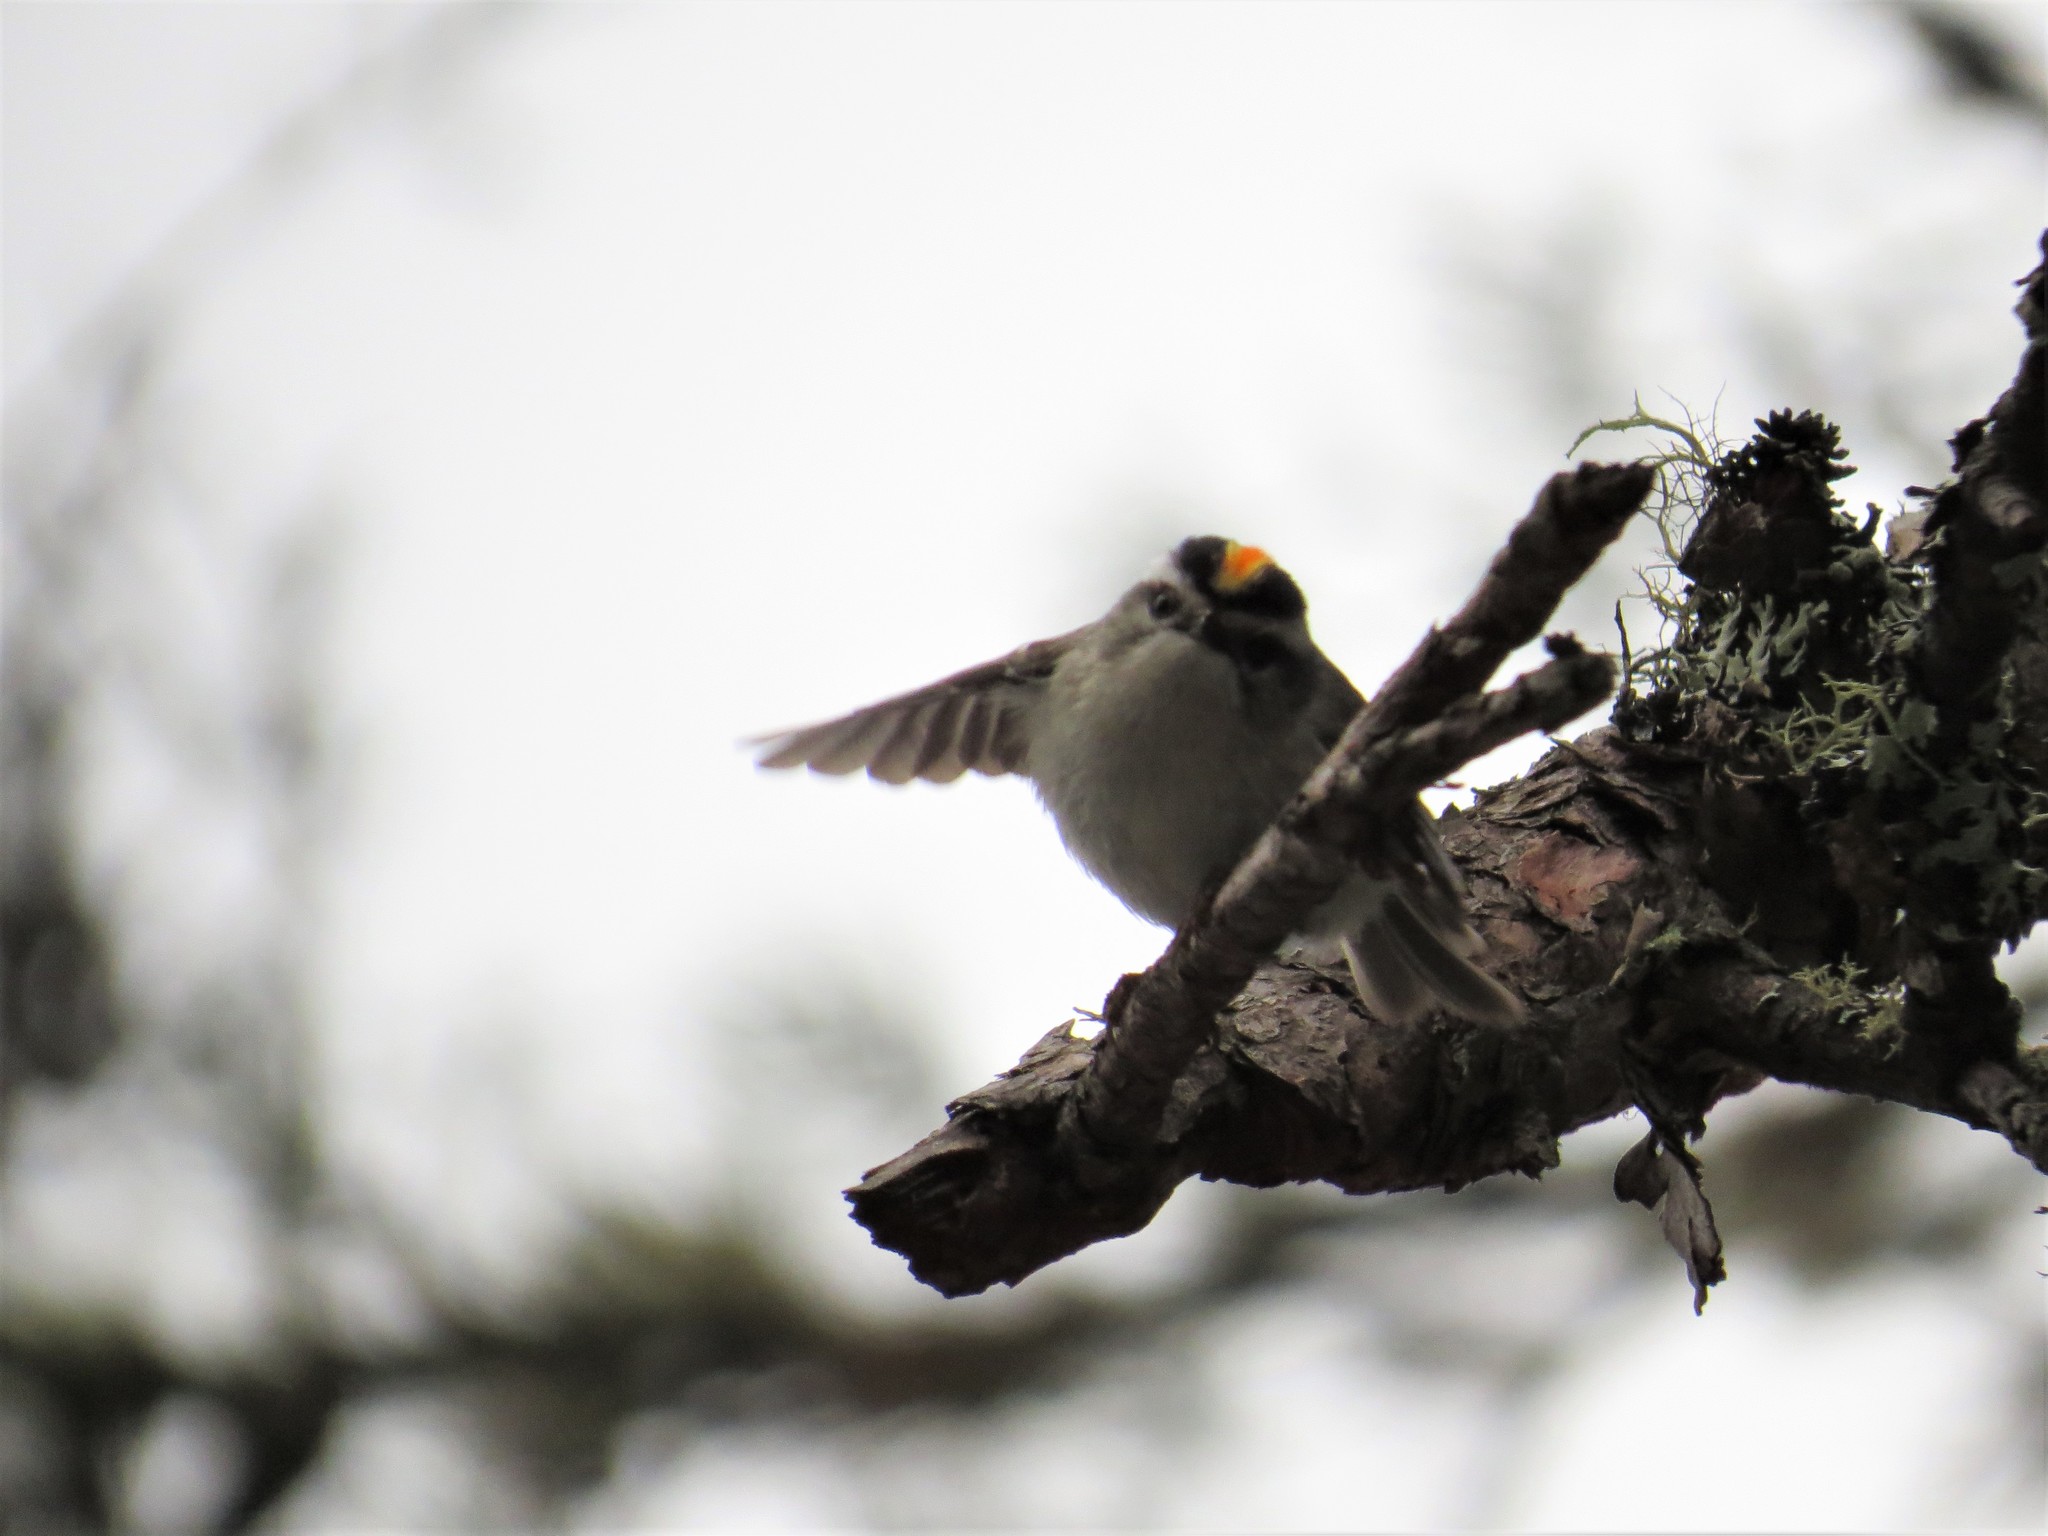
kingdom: Animalia
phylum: Chordata
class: Aves
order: Passeriformes
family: Regulidae
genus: Regulus
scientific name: Regulus satrapa
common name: Golden-crowned kinglet
